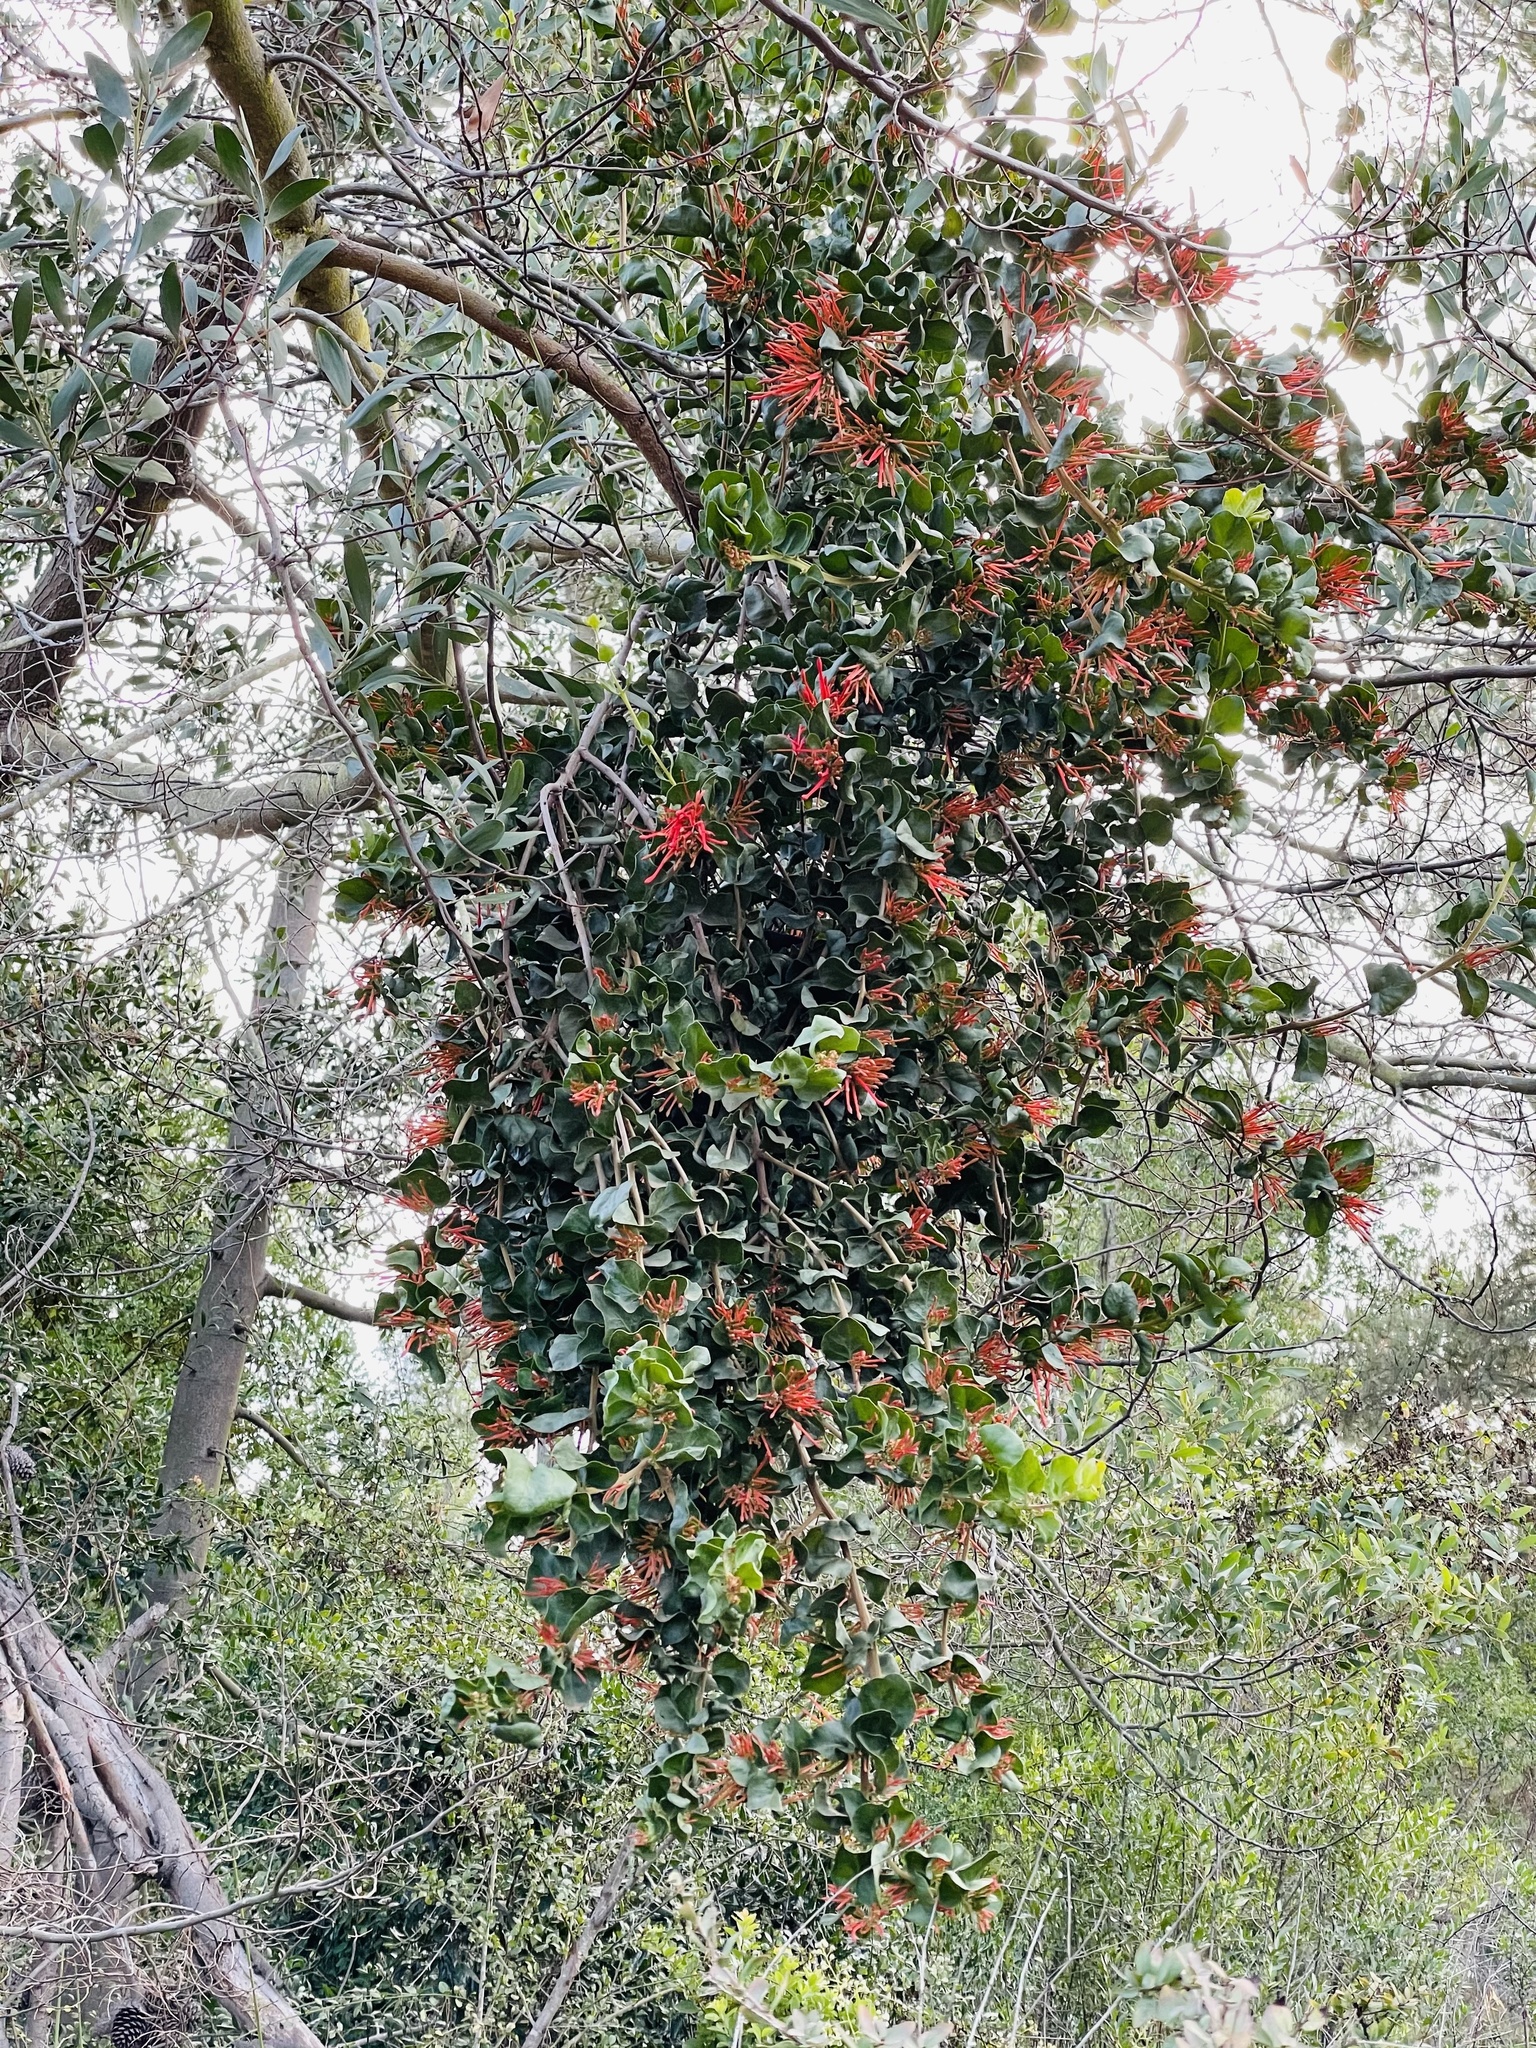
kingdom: Plantae
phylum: Tracheophyta
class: Magnoliopsida
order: Santalales
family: Loranthaceae
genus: Tristerix
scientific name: Tristerix corymbosus
